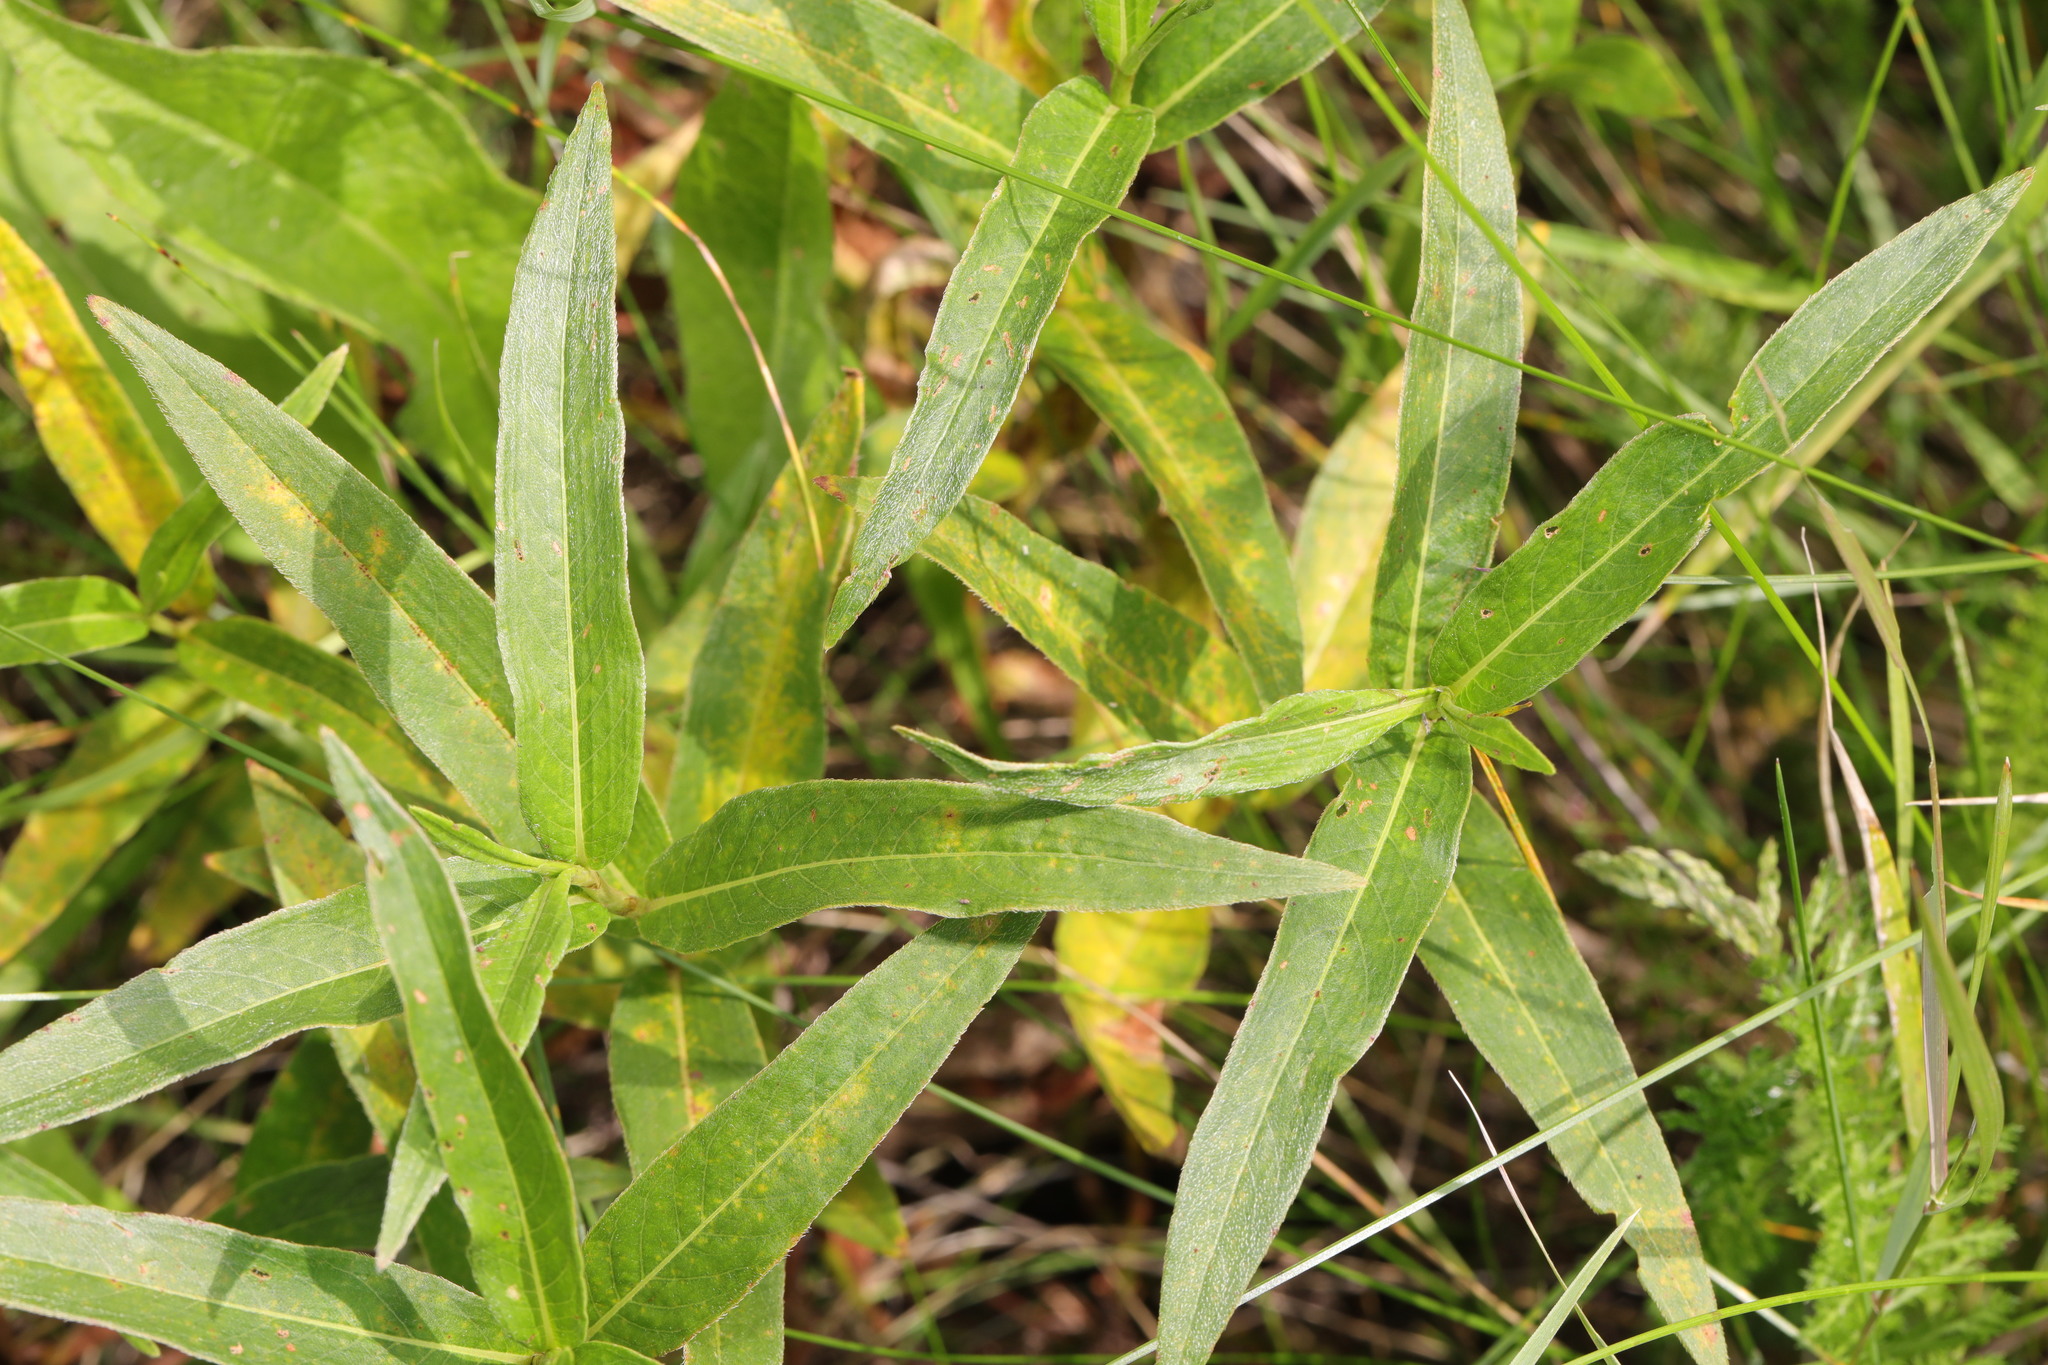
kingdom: Plantae
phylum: Tracheophyta
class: Magnoliopsida
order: Caryophyllales
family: Polygonaceae
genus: Persicaria
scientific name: Persicaria amphibia
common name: Amphibious bistort
